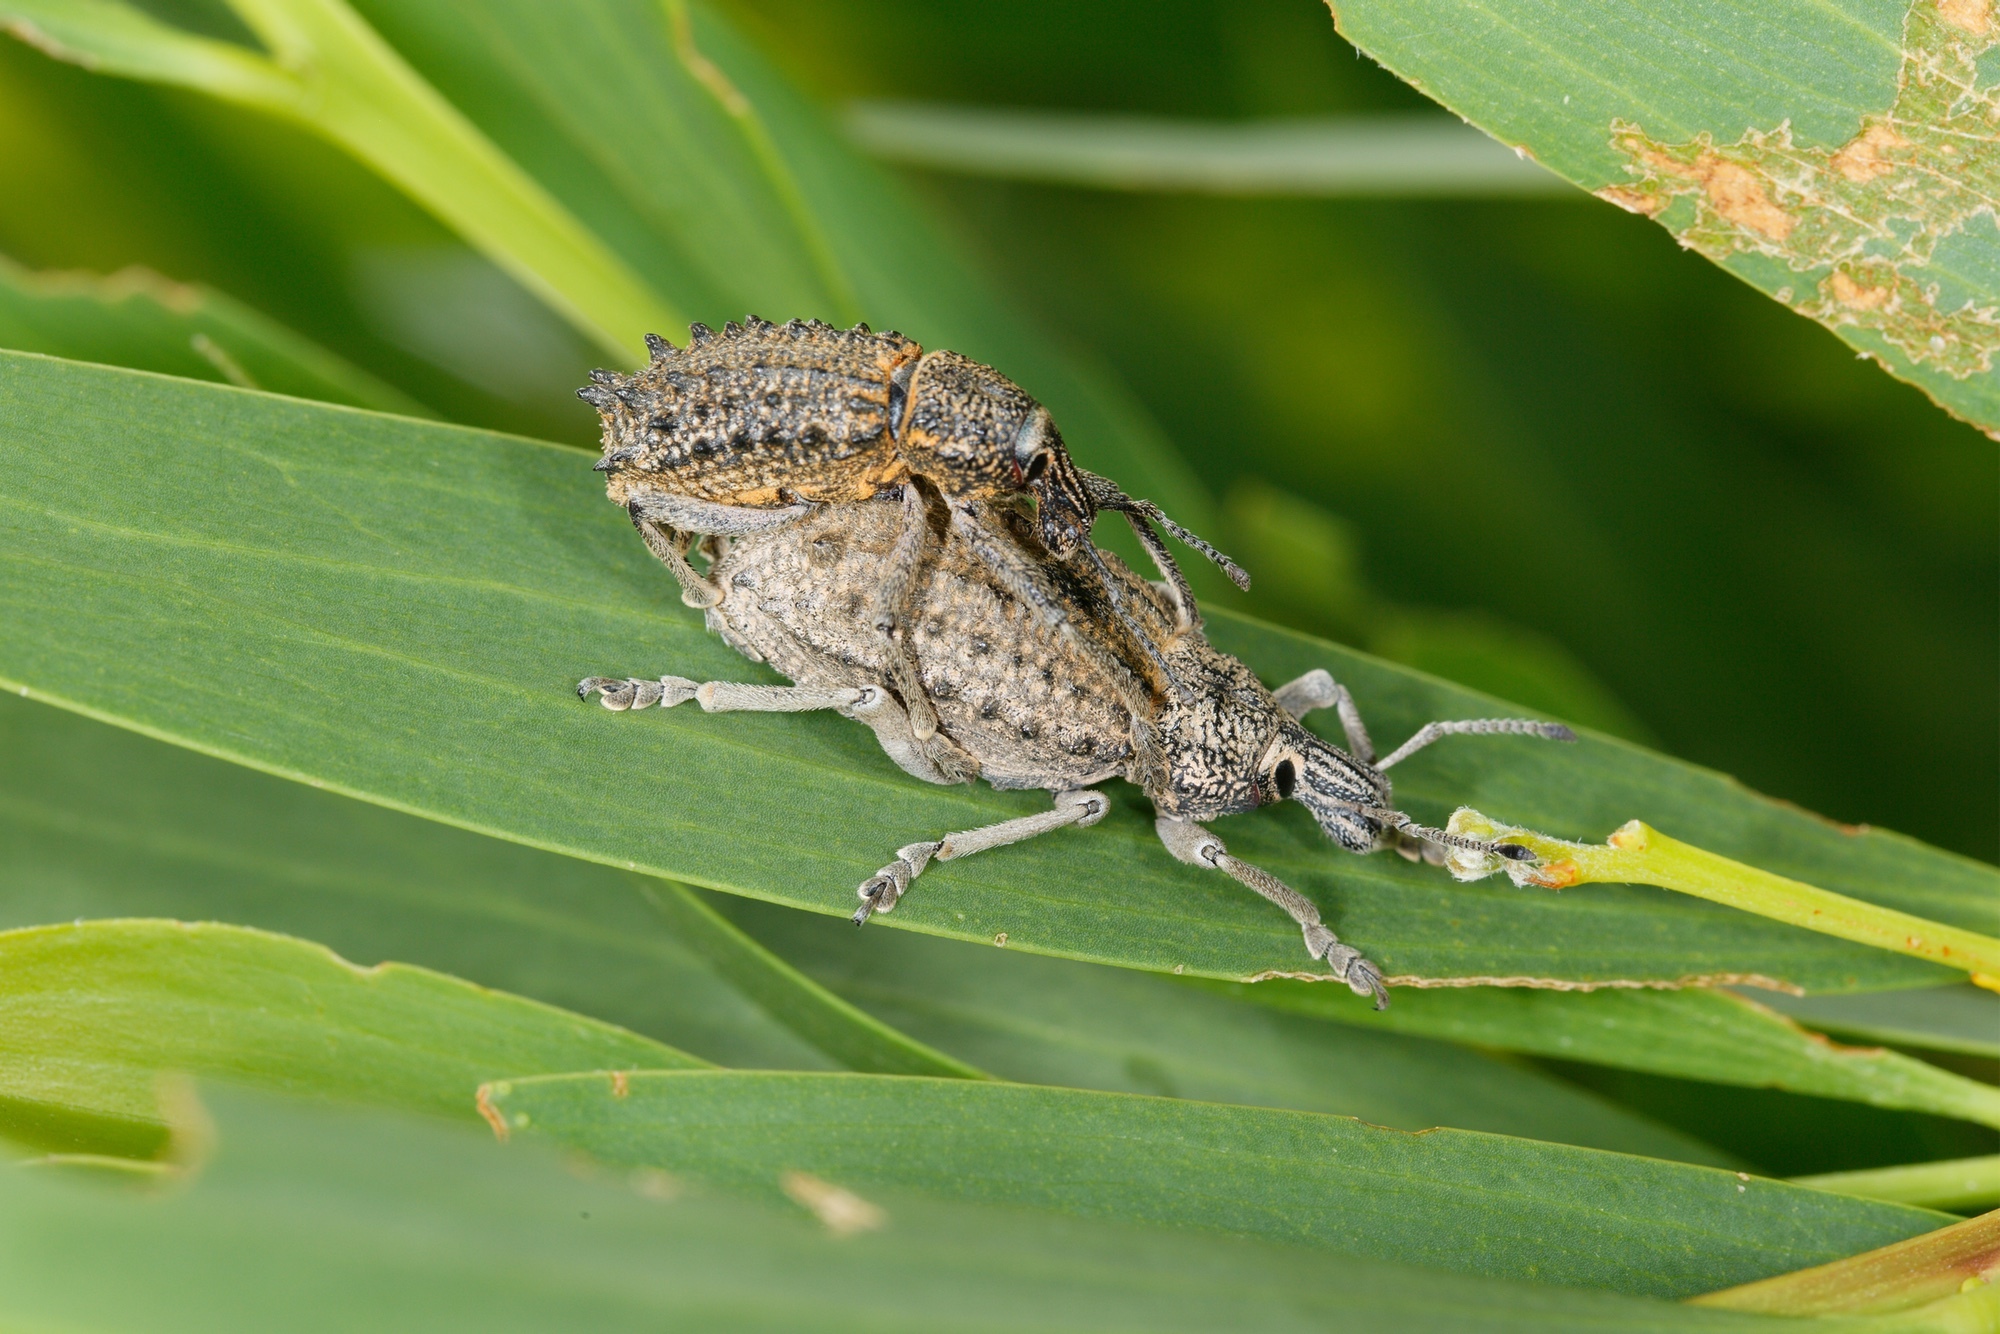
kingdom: Animalia
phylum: Arthropoda
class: Insecta
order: Coleoptera
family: Curculionidae
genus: Leptopius
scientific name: Leptopius duponti
